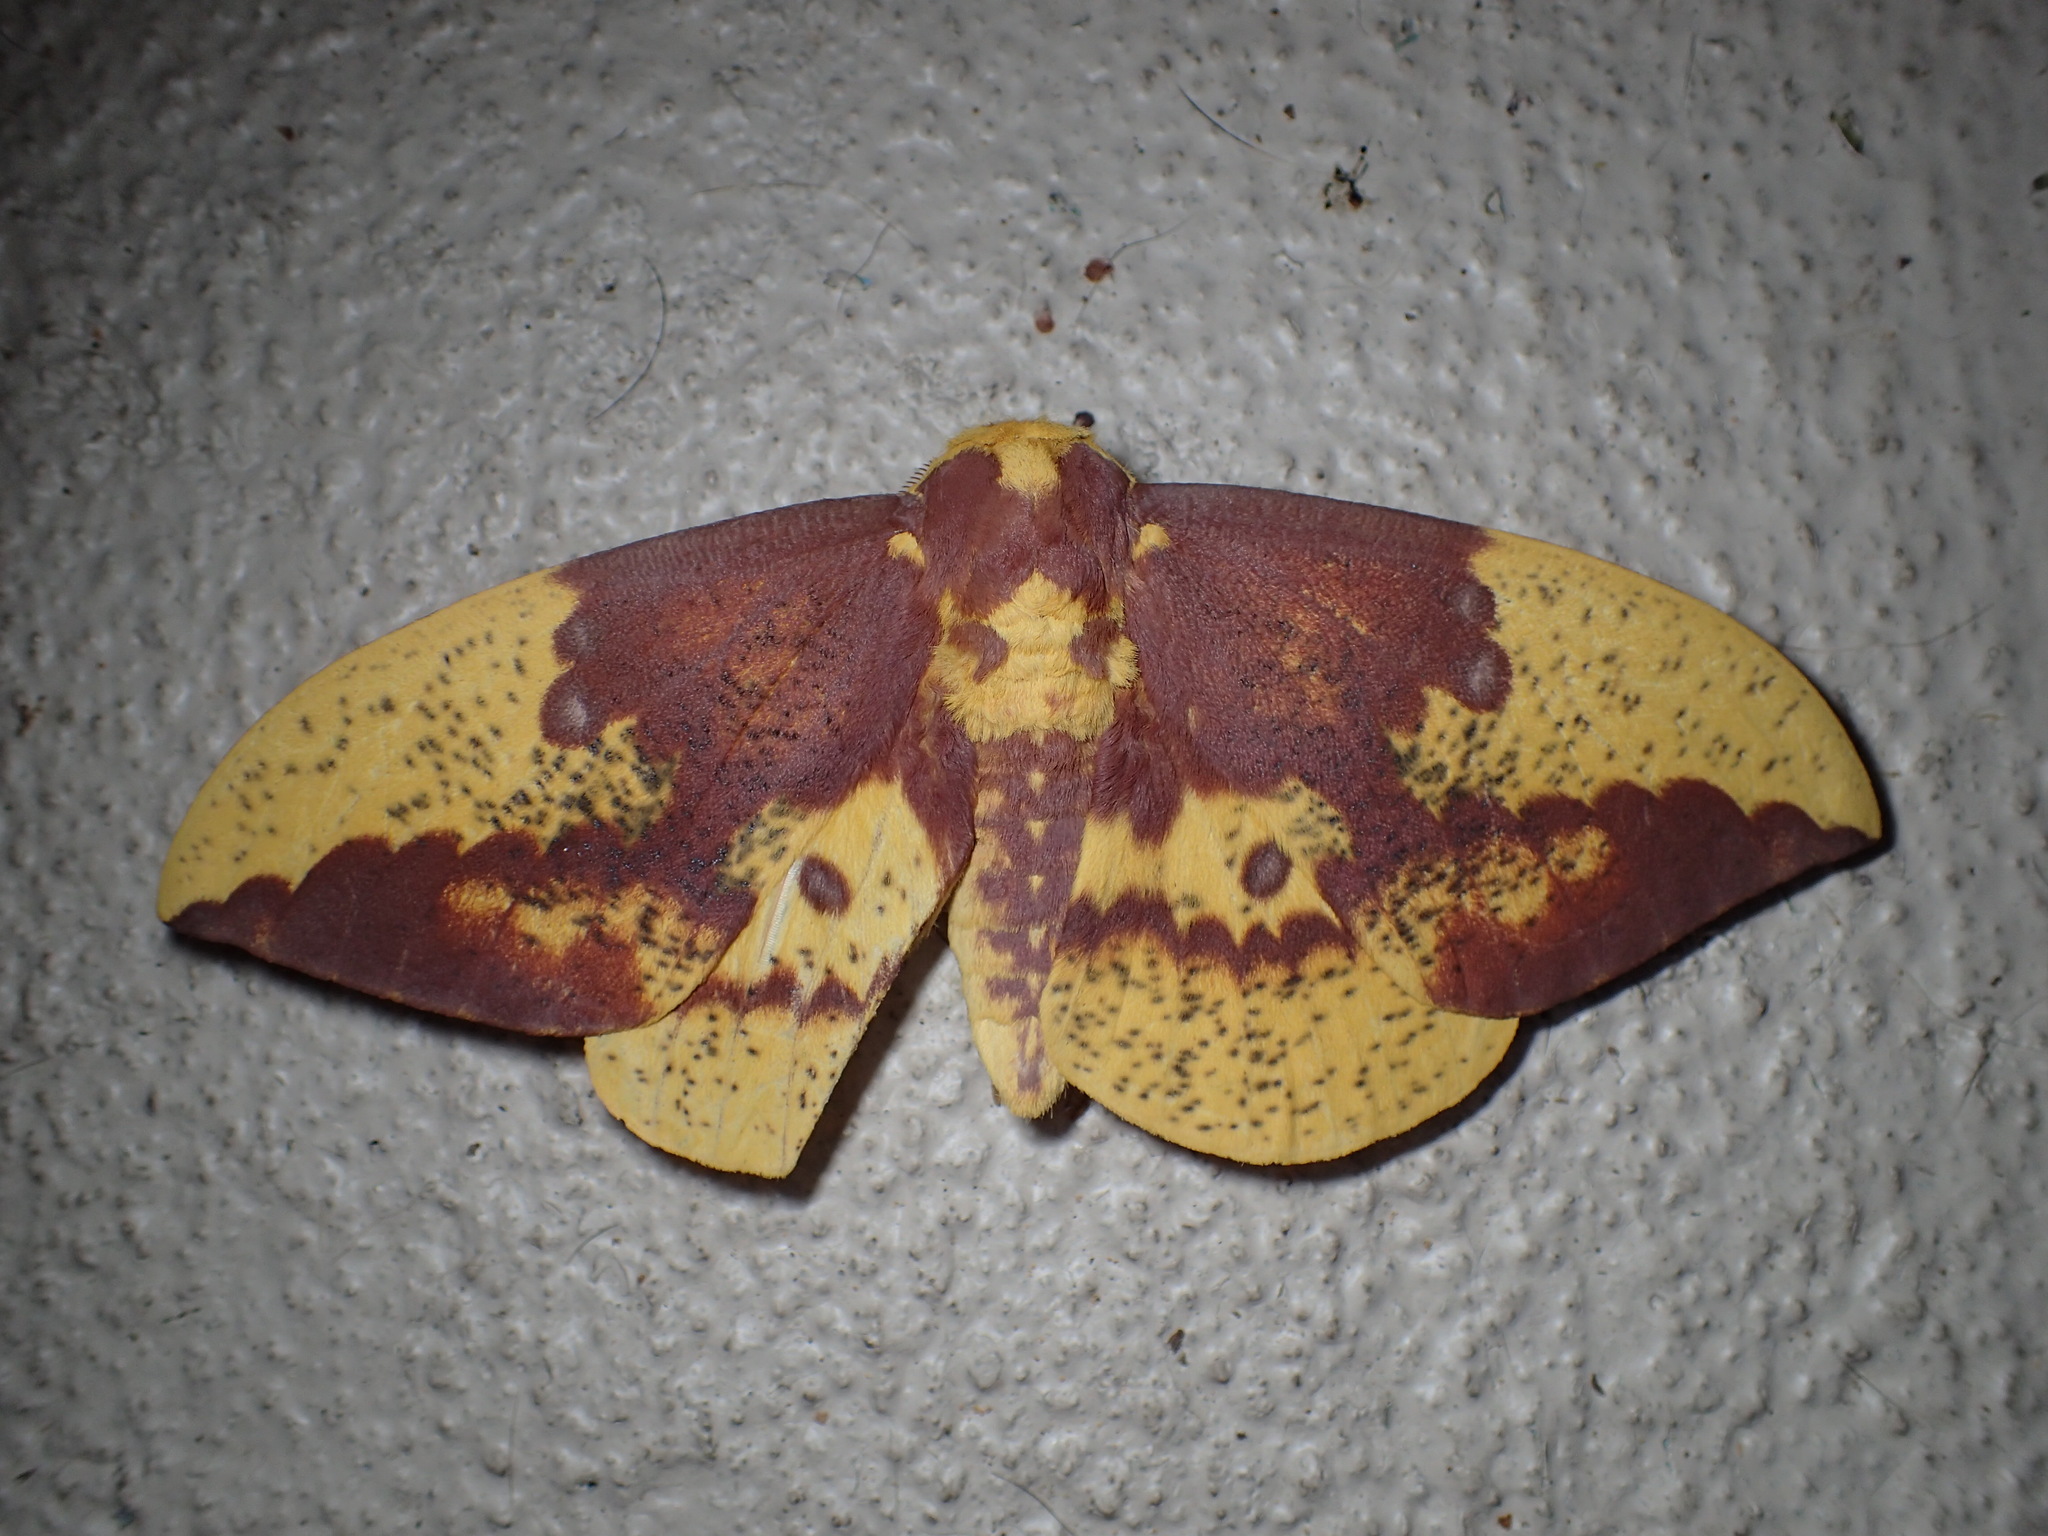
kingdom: Animalia
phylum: Arthropoda
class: Insecta
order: Lepidoptera
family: Saturniidae
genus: Eacles
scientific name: Eacles imperialis
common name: Imperial moth
